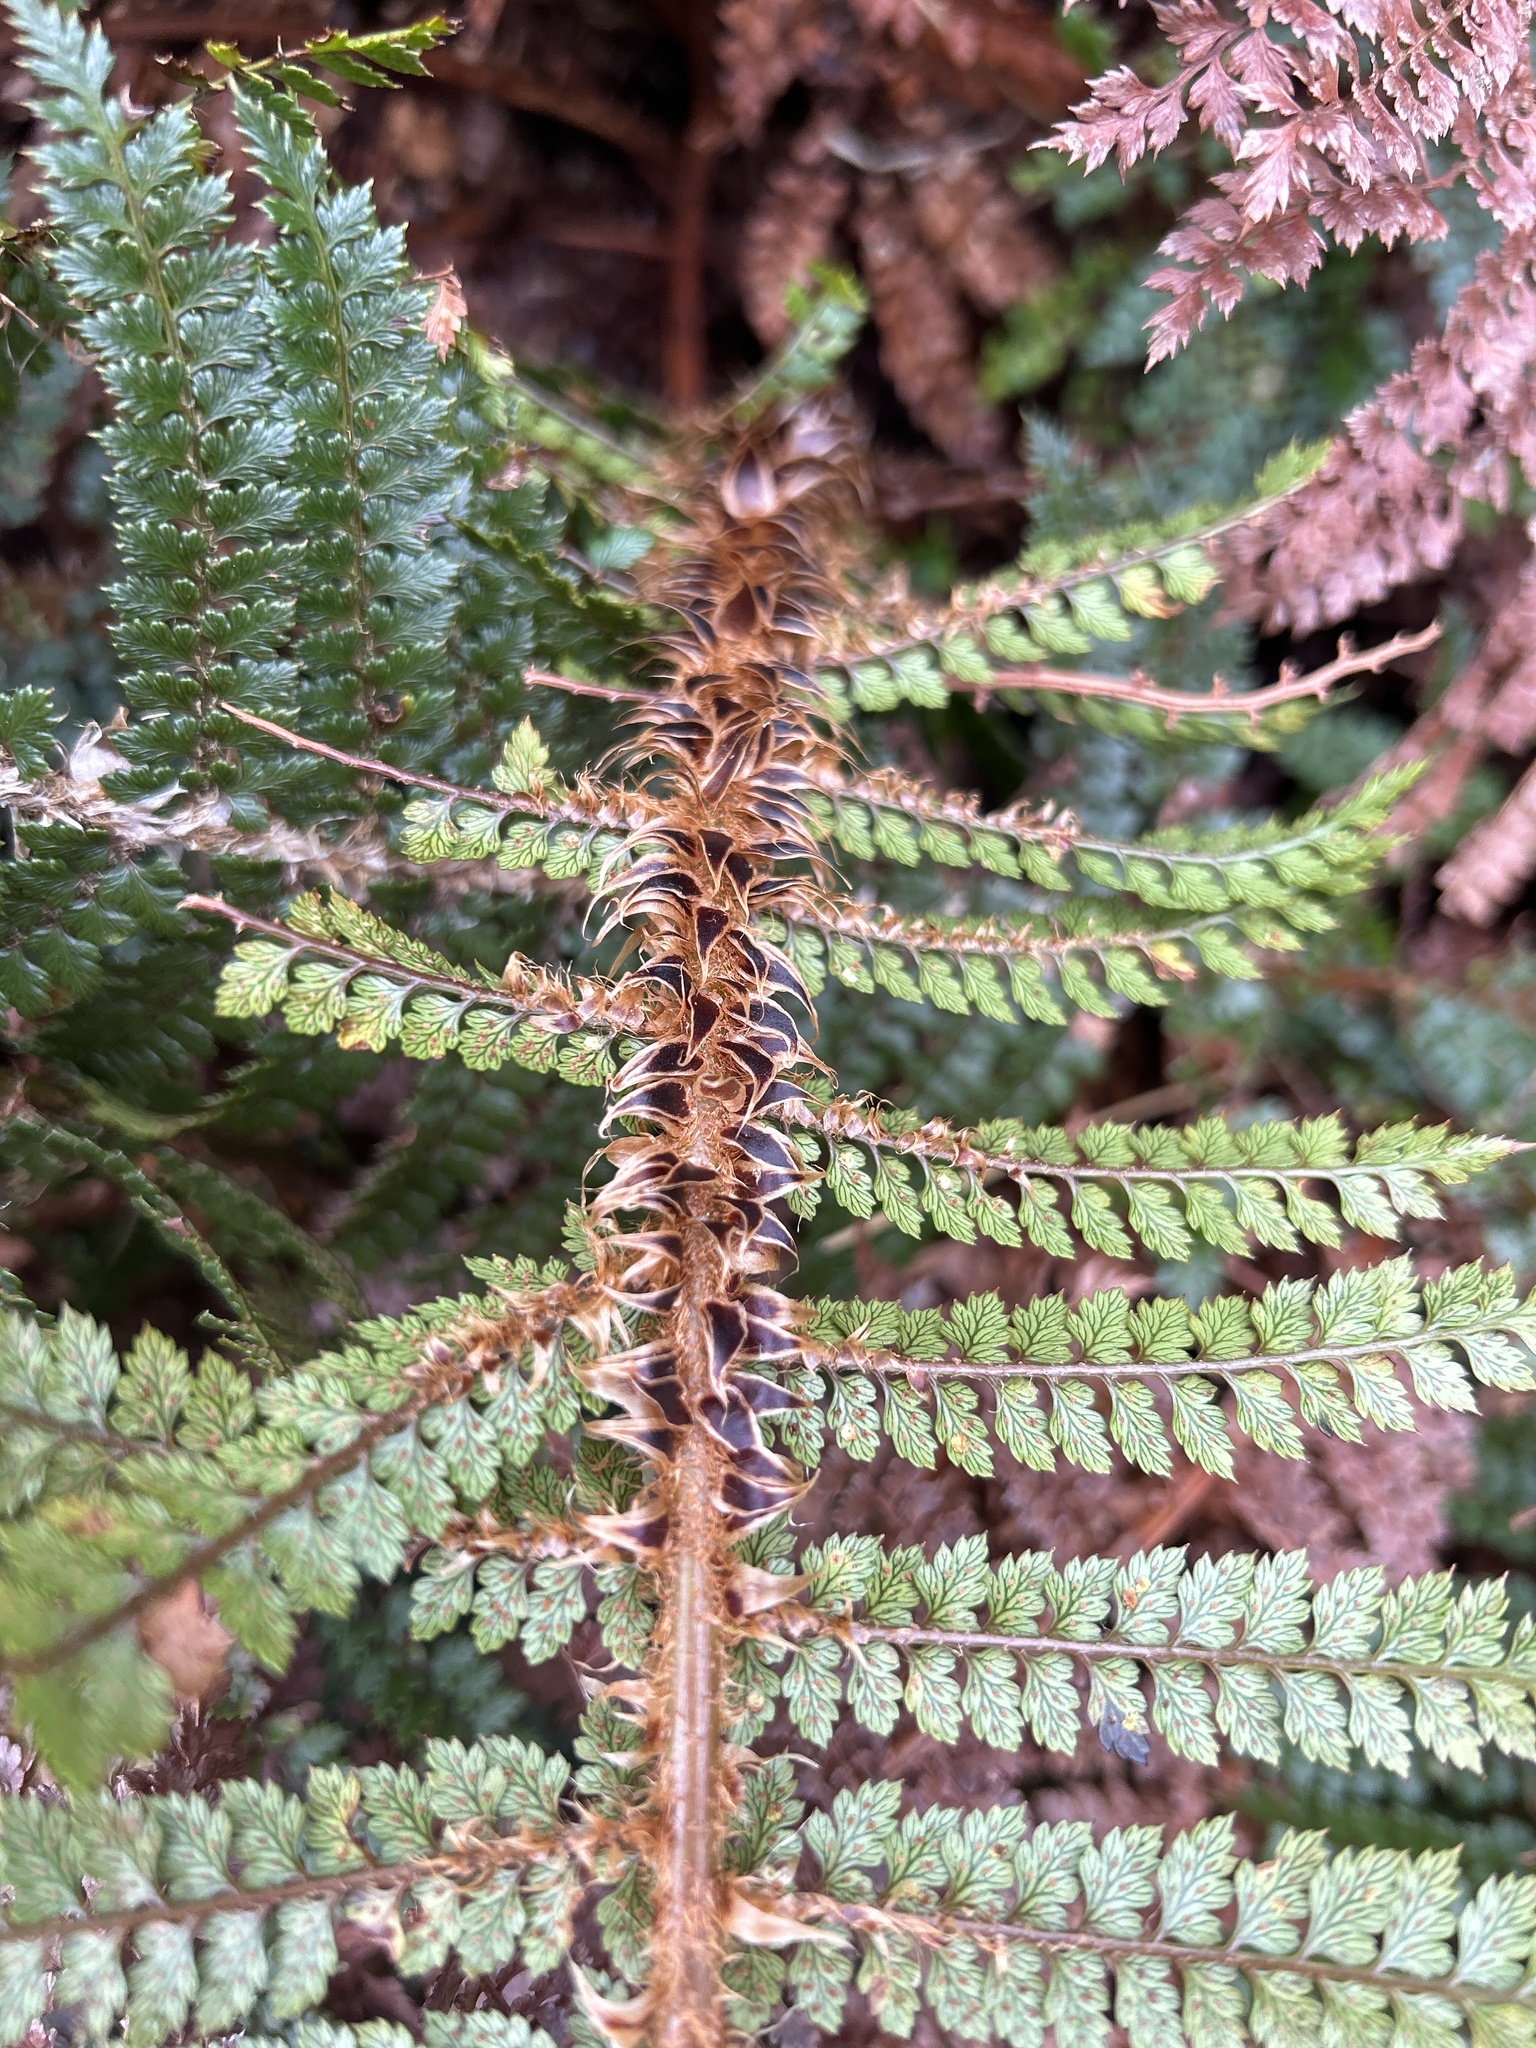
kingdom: Plantae
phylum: Tracheophyta
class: Polypodiopsida
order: Polypodiales
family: Dryopteridaceae
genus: Polystichum
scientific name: Polystichum vestitum
